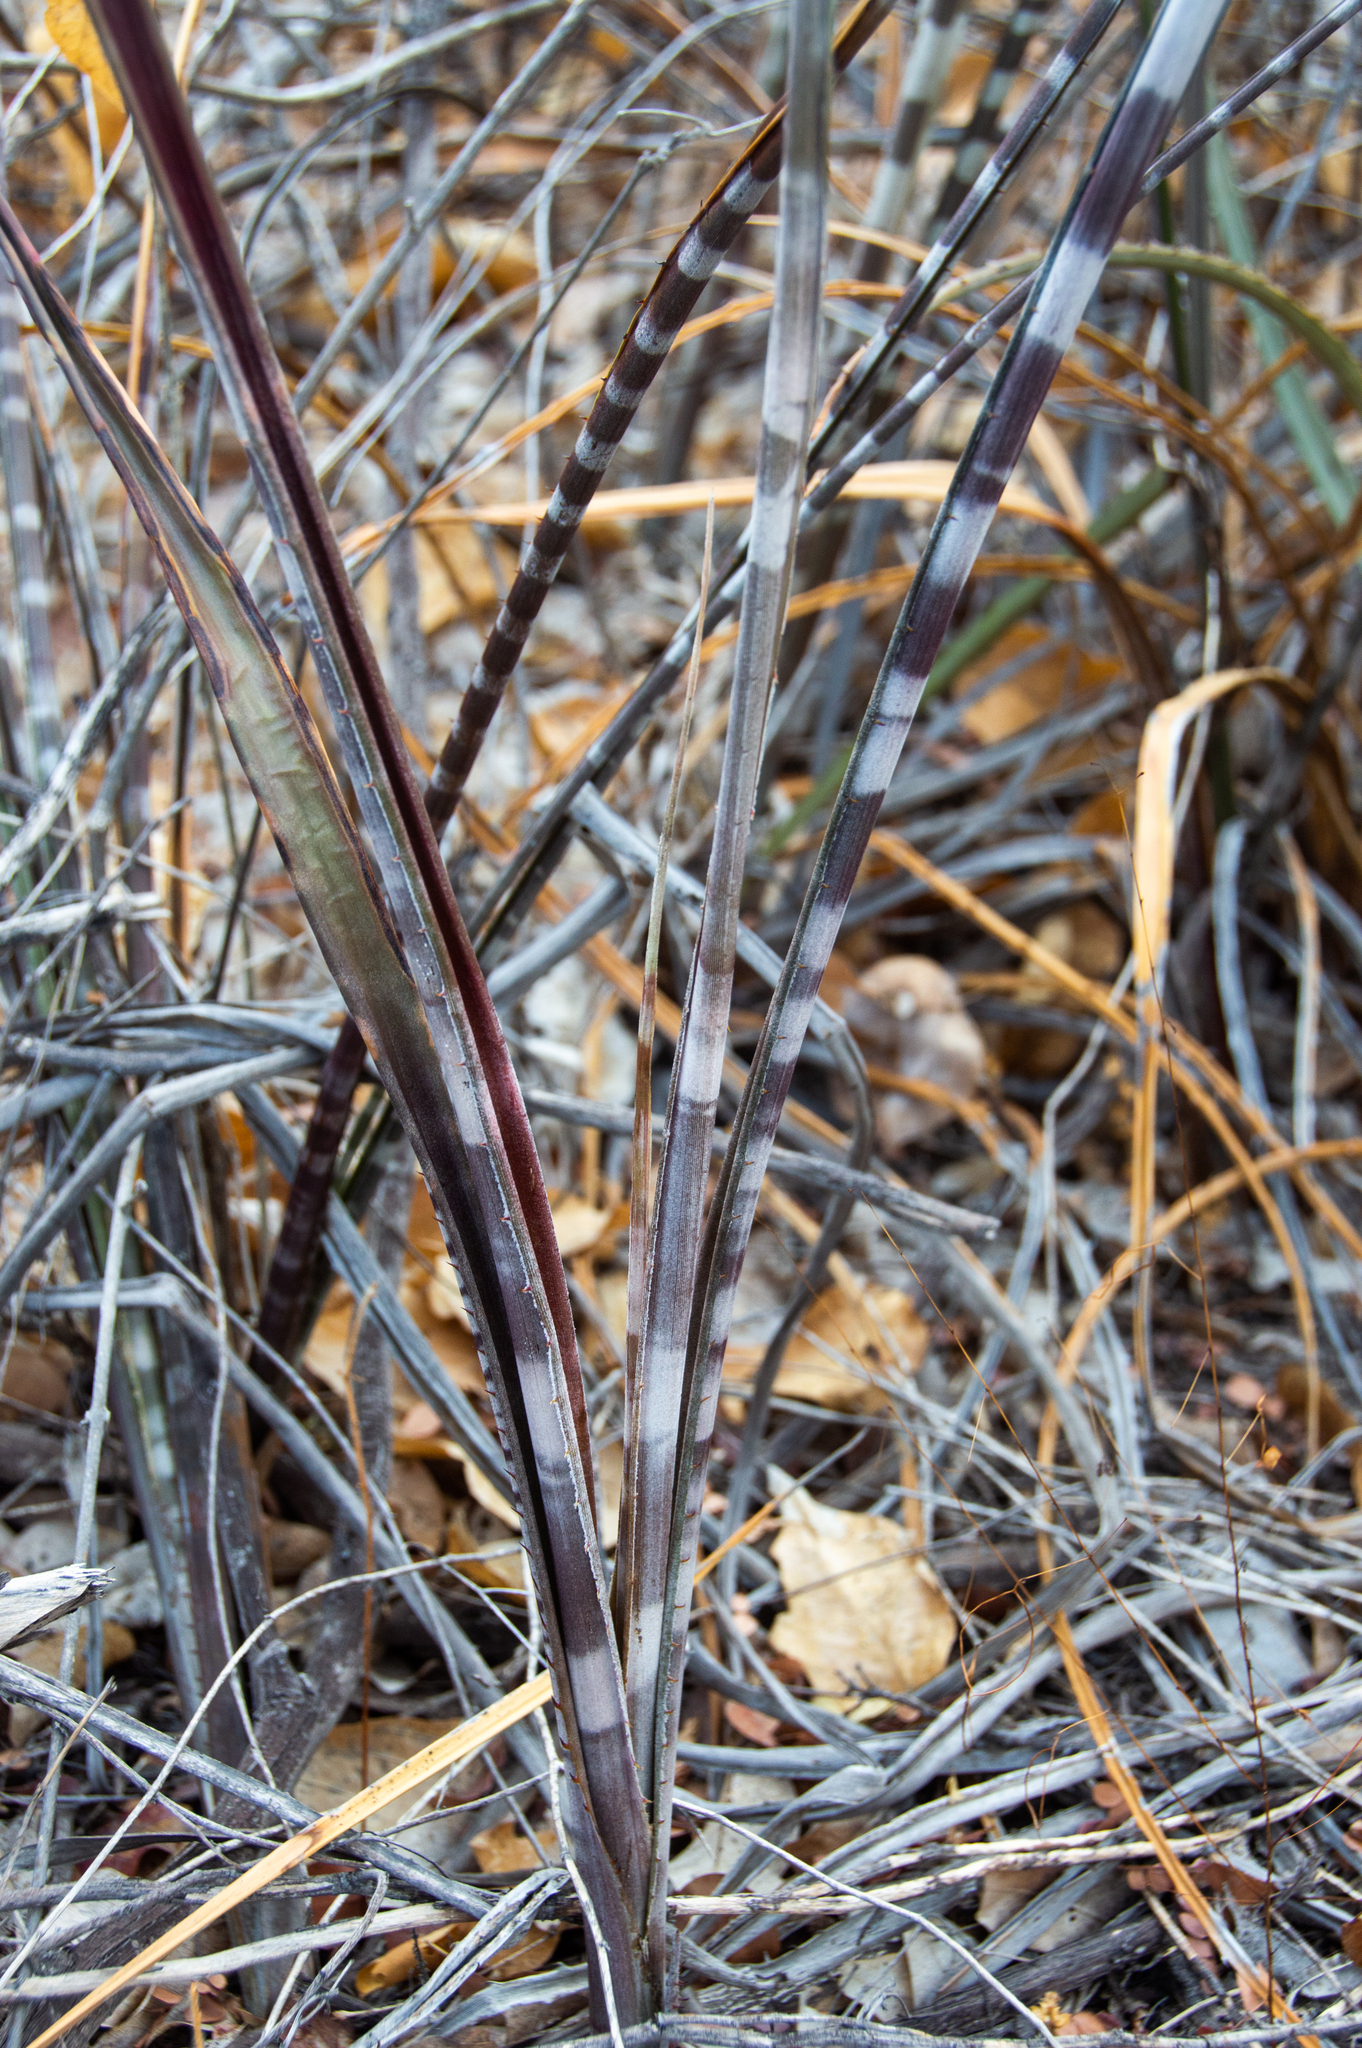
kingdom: Plantae
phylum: Tracheophyta
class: Liliopsida
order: Poales
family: Bromeliaceae
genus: Neoglaziovia
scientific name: Neoglaziovia variegata
